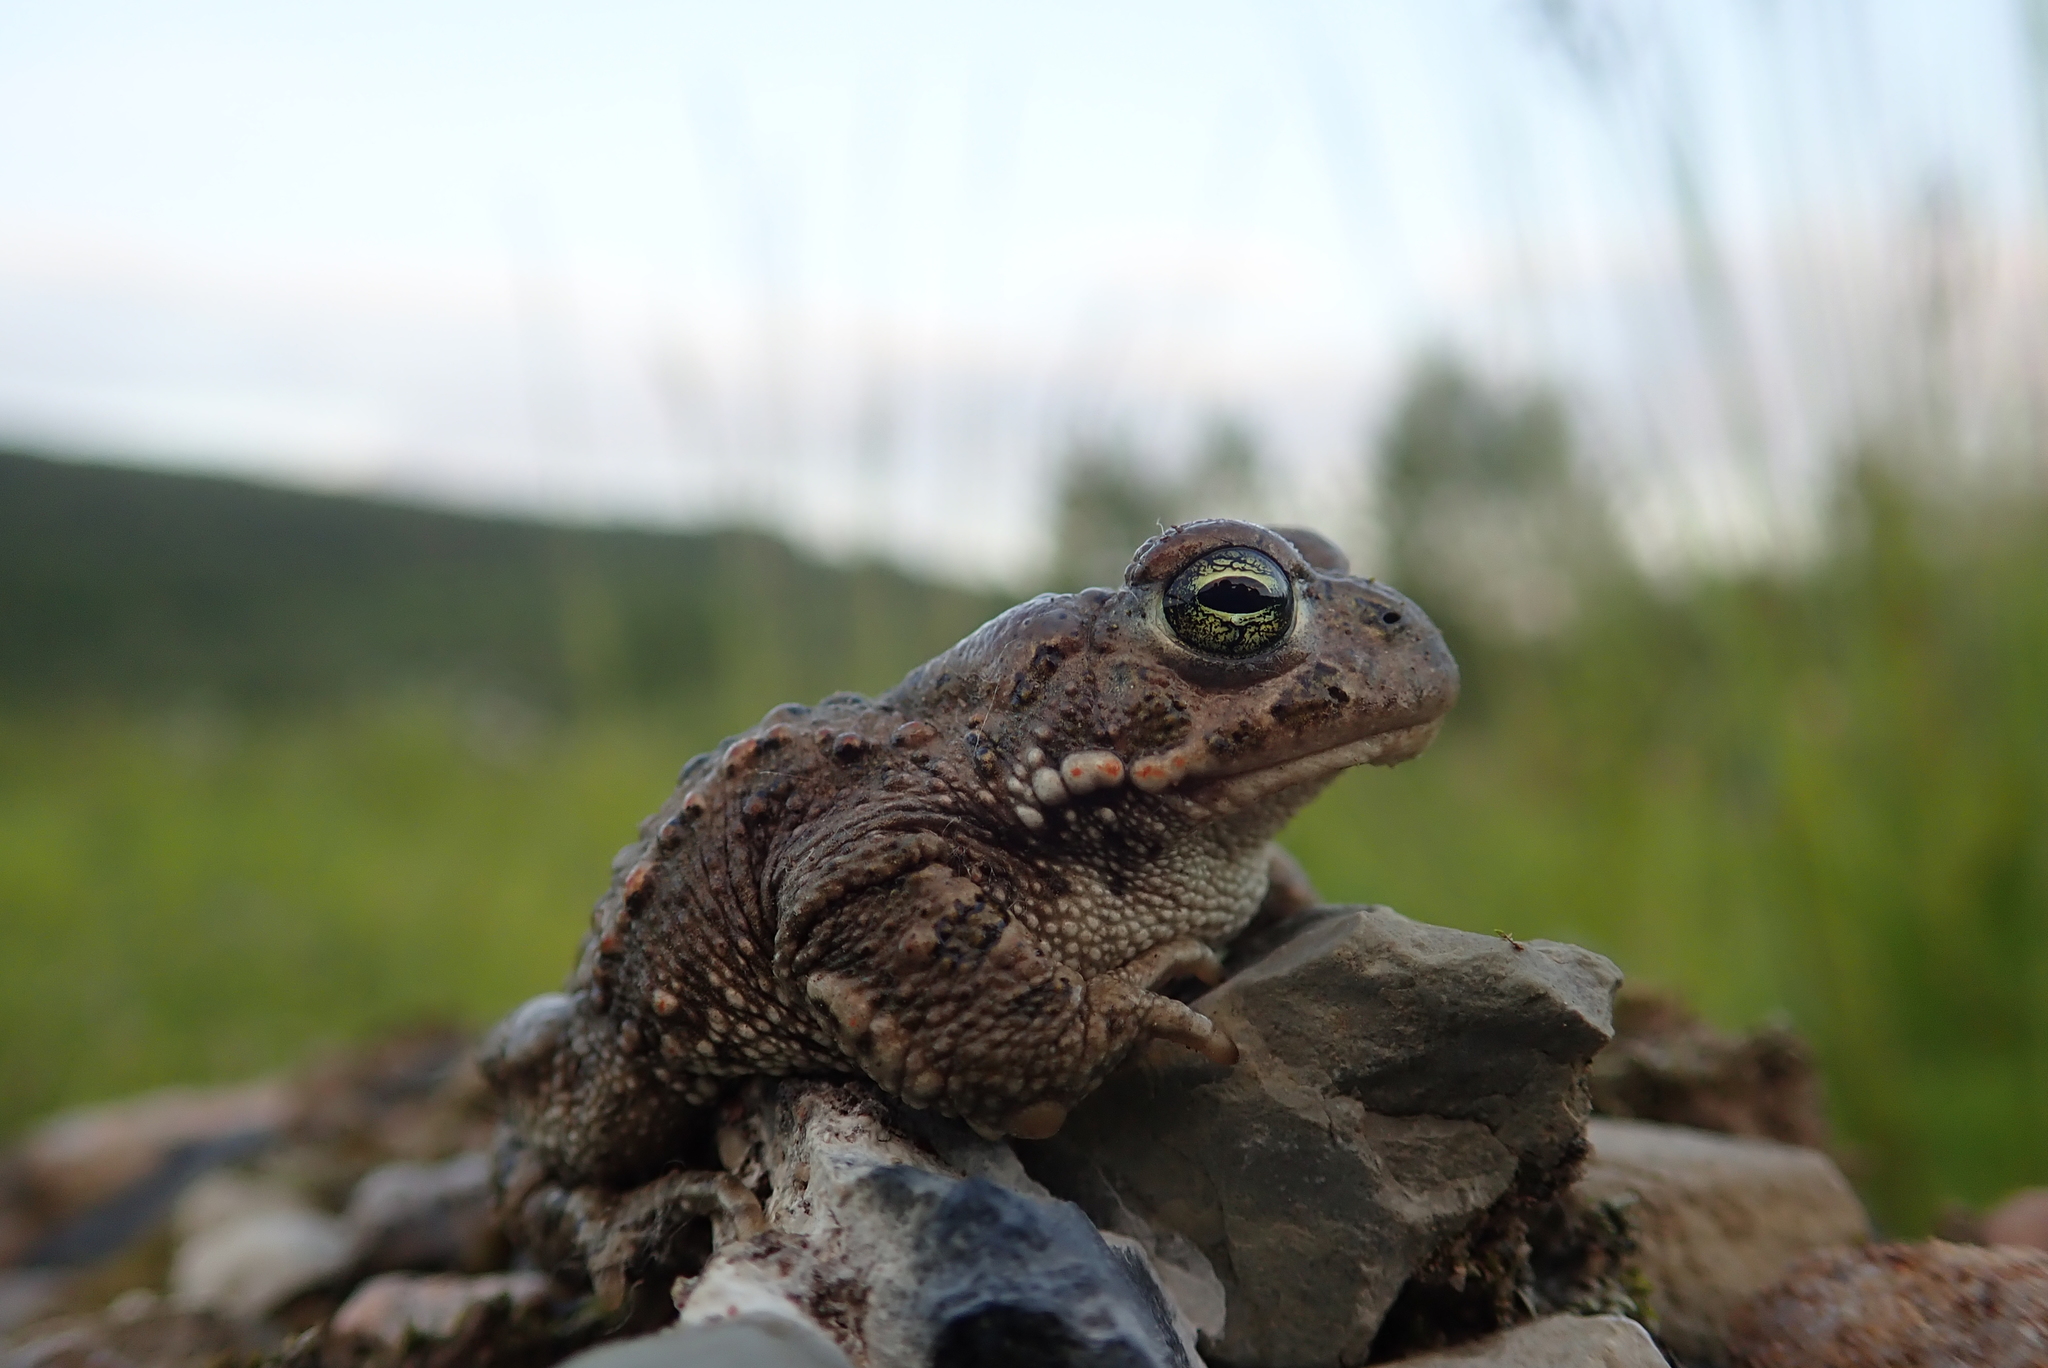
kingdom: Animalia
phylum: Chordata
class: Amphibia
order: Anura
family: Bufonidae
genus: Epidalea
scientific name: Epidalea calamita
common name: Natterjack toad
